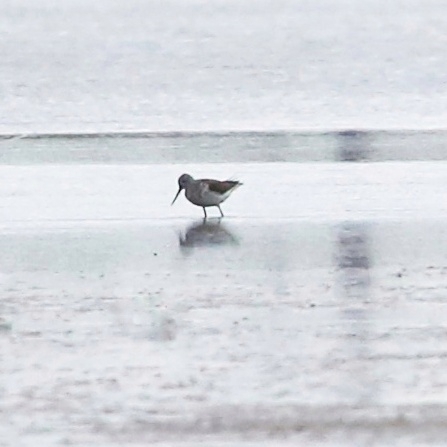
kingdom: Animalia
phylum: Chordata
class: Aves
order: Charadriiformes
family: Scolopacidae
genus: Tringa
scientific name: Tringa nebularia
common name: Common greenshank
